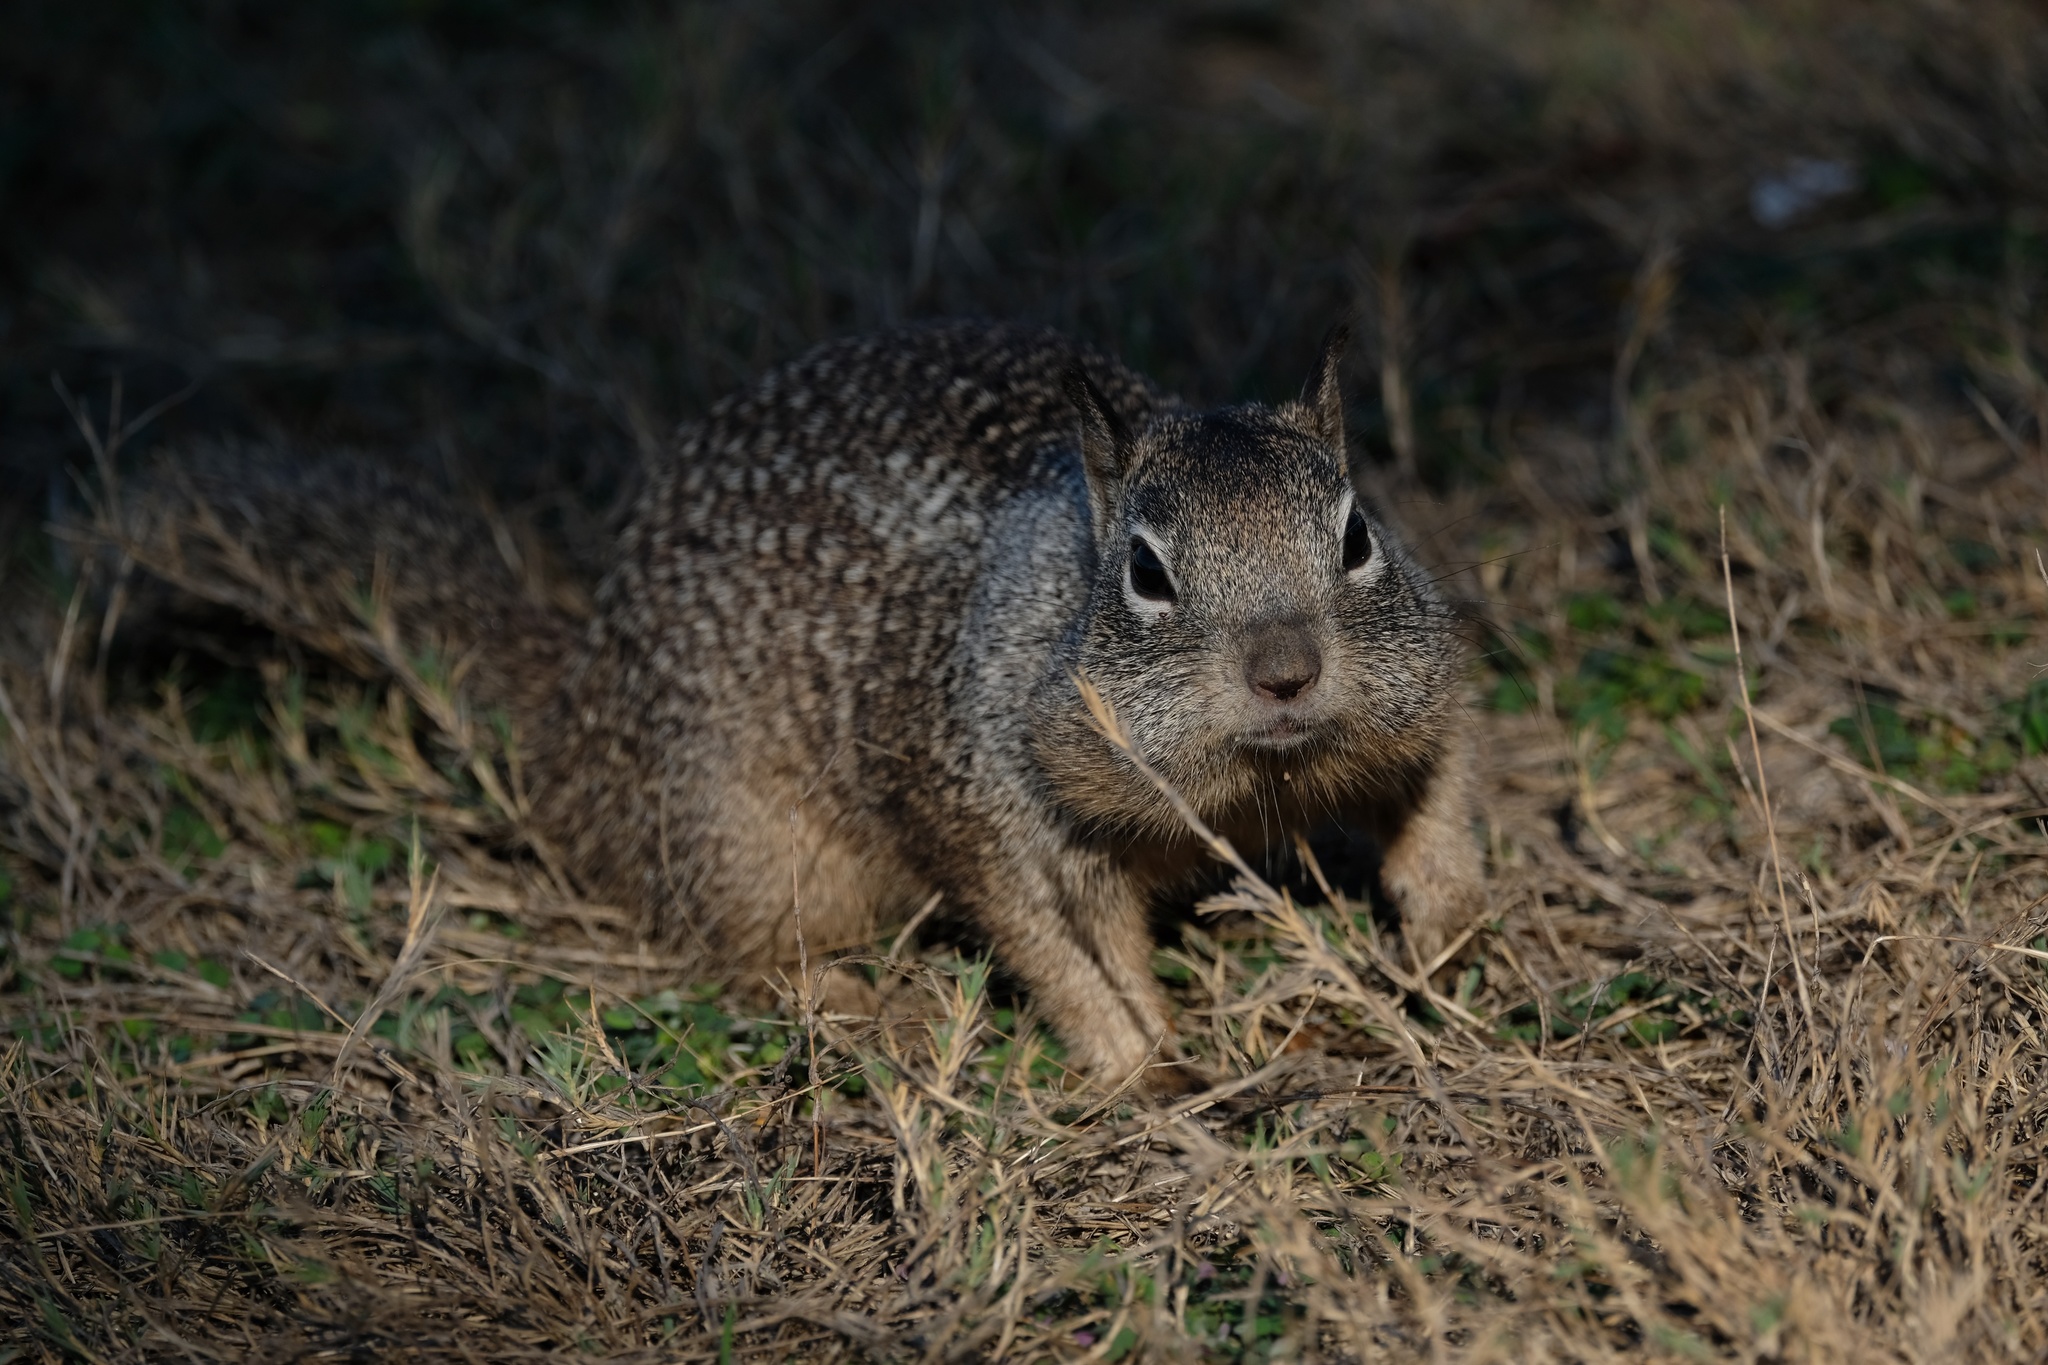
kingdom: Animalia
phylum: Chordata
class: Mammalia
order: Rodentia
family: Sciuridae
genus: Otospermophilus
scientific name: Otospermophilus beecheyi
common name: California ground squirrel
